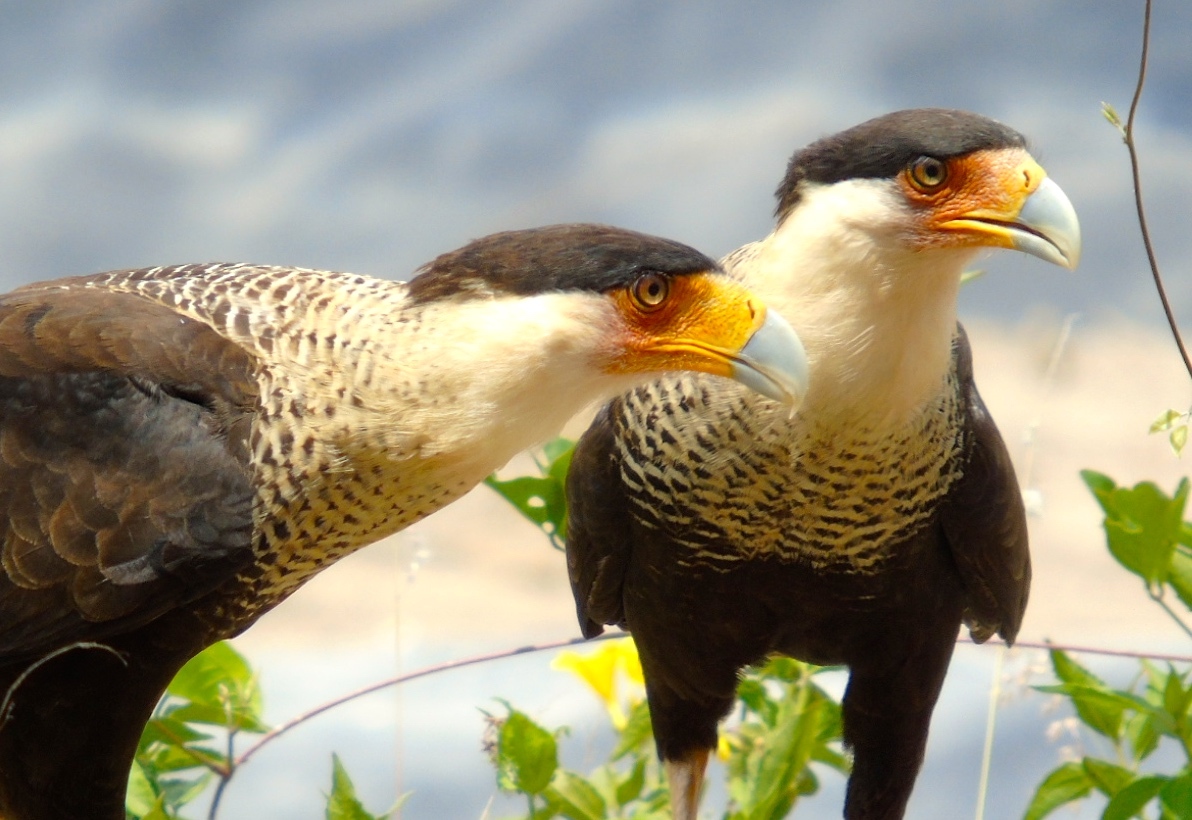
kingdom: Animalia
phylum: Chordata
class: Aves
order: Falconiformes
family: Falconidae
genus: Caracara
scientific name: Caracara plancus
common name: Southern caracara
